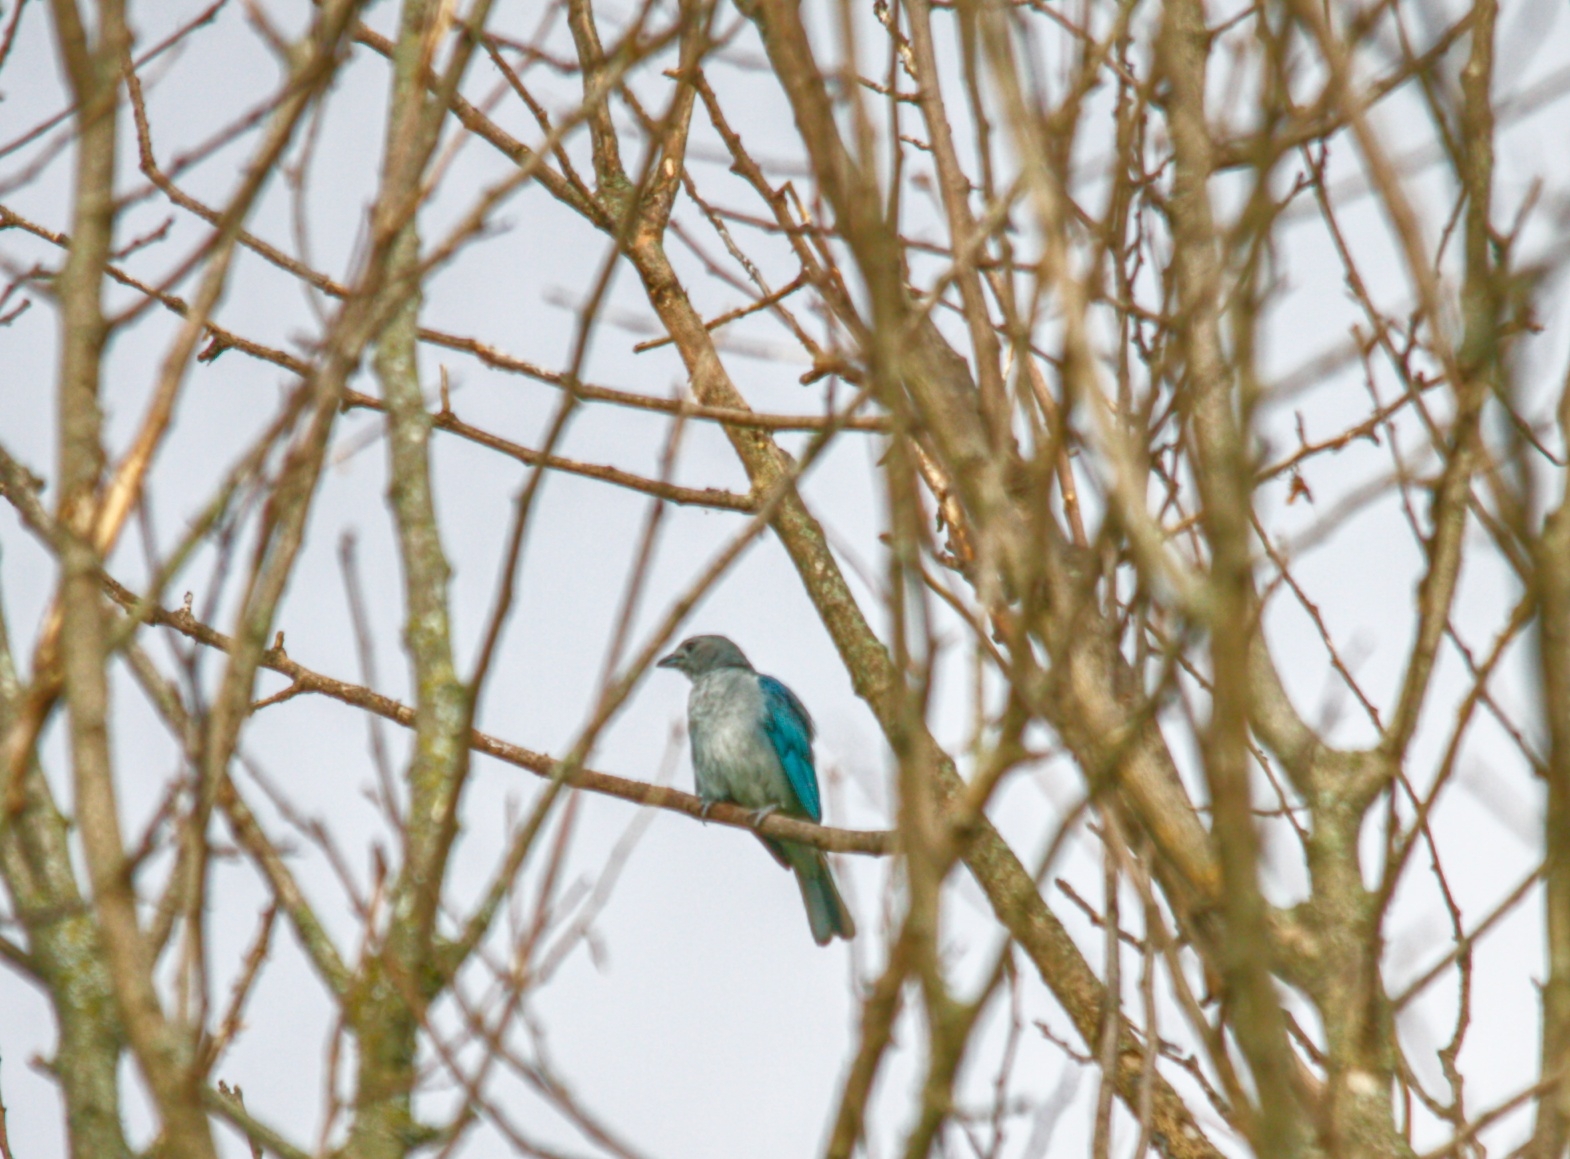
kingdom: Animalia
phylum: Chordata
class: Aves
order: Passeriformes
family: Thraupidae
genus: Thraupis
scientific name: Thraupis sayaca
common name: Sayaca tanager
